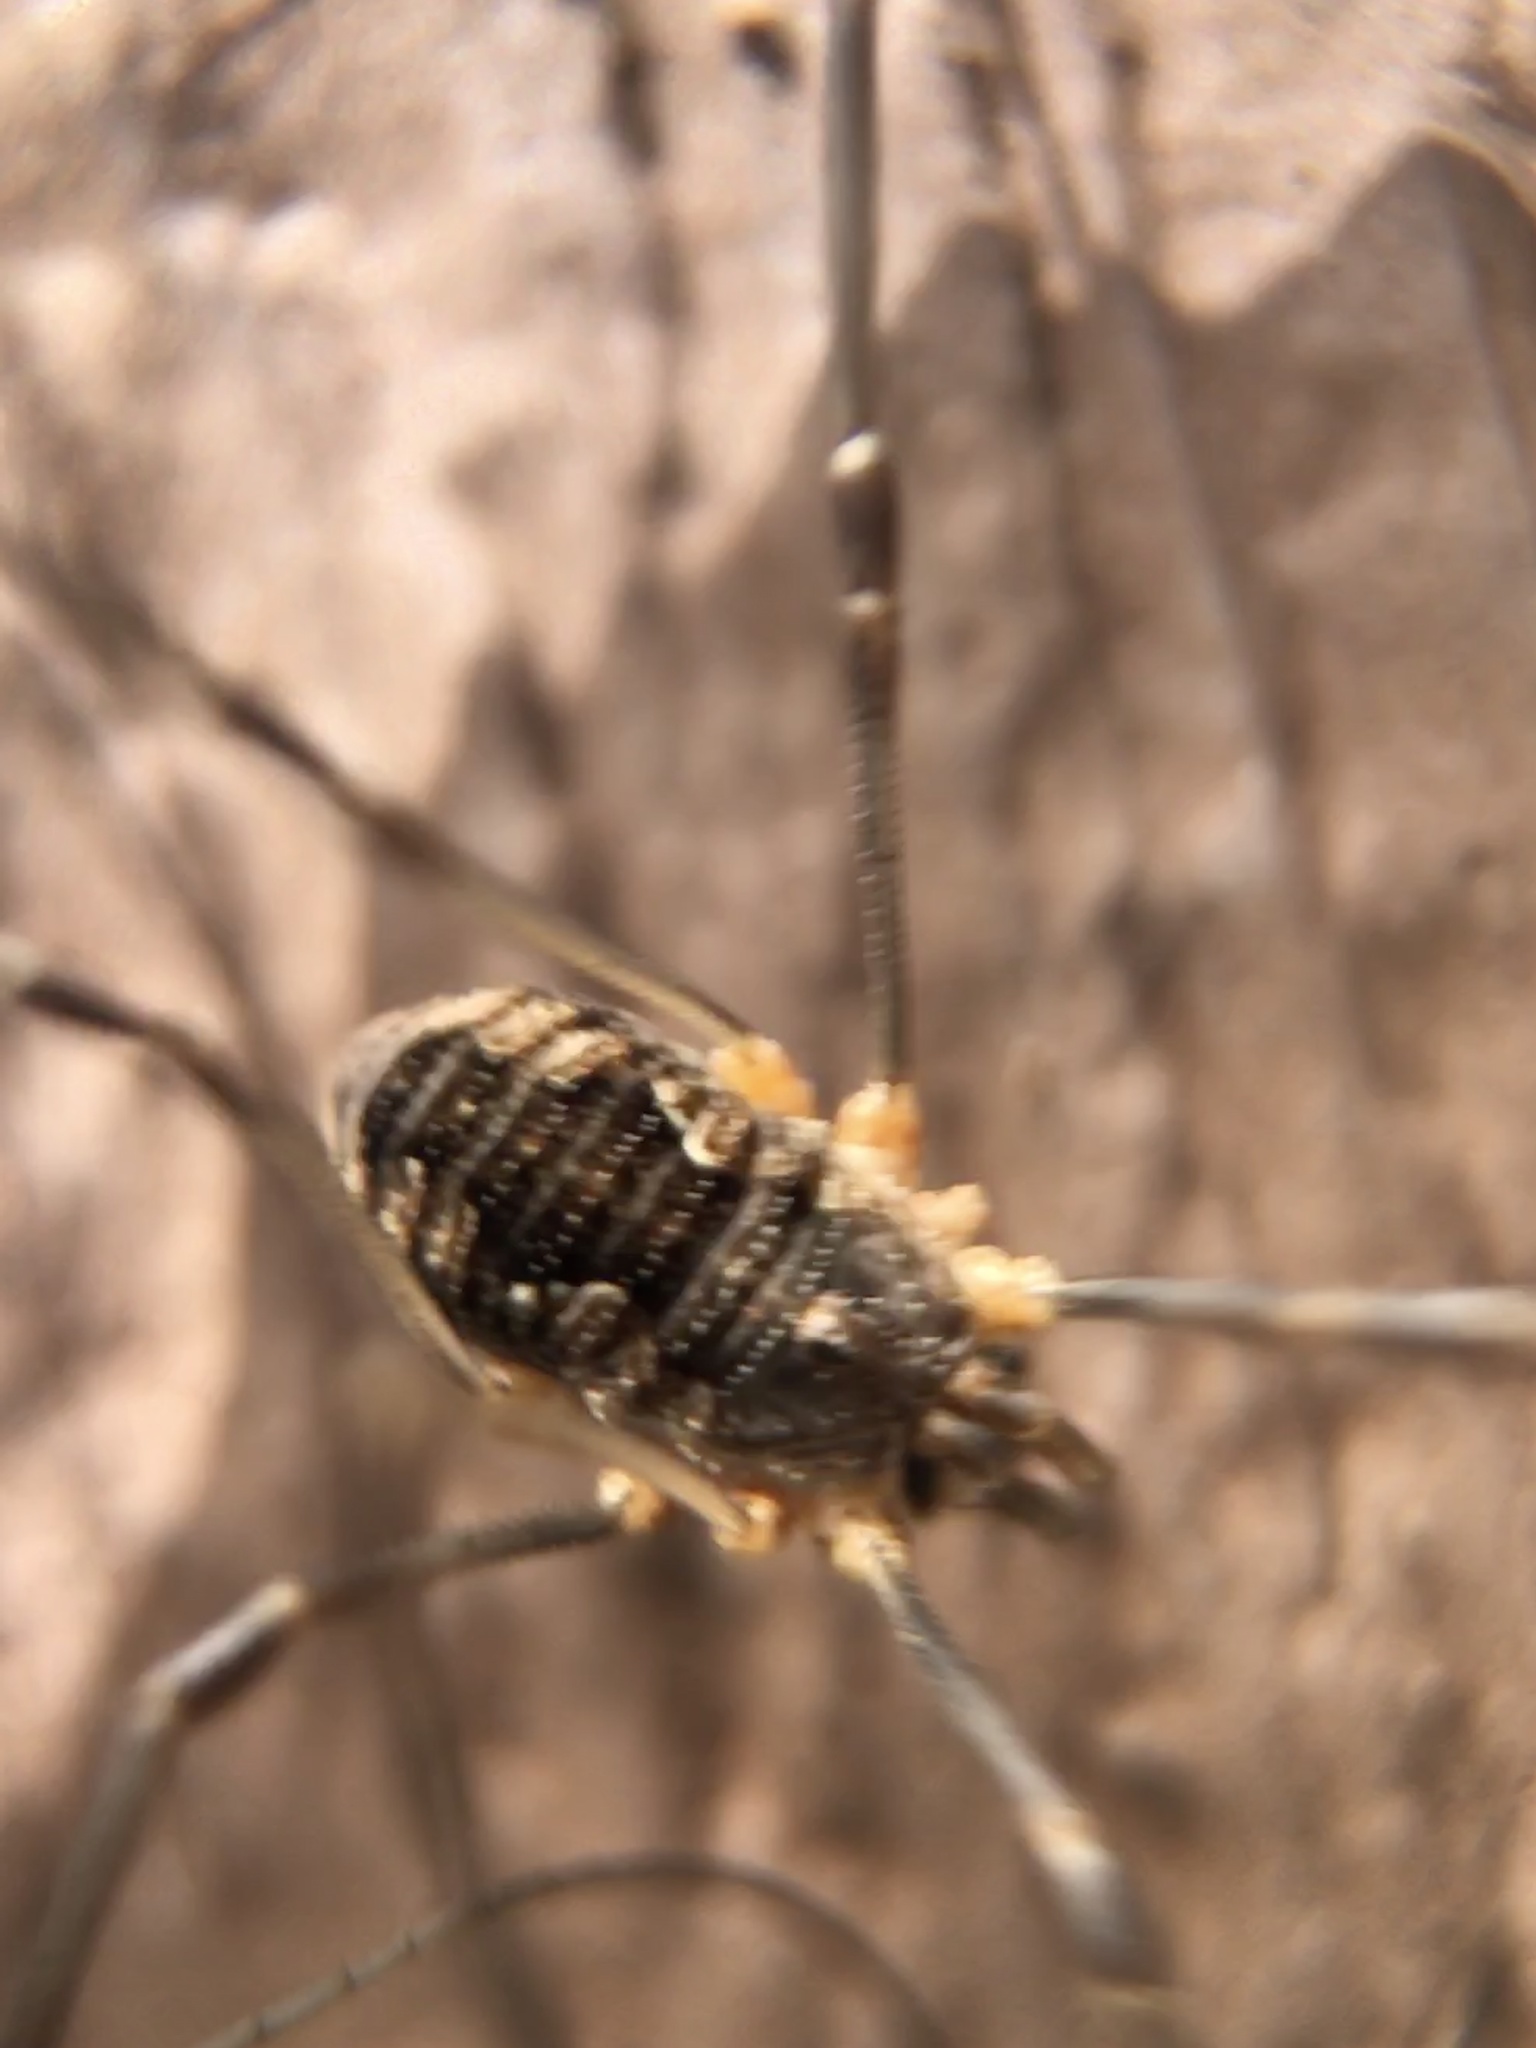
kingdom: Animalia
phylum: Arthropoda
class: Arachnida
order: Opiliones
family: Phalangiidae
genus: Phalangium
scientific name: Phalangium opilio
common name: Daddy longleg
